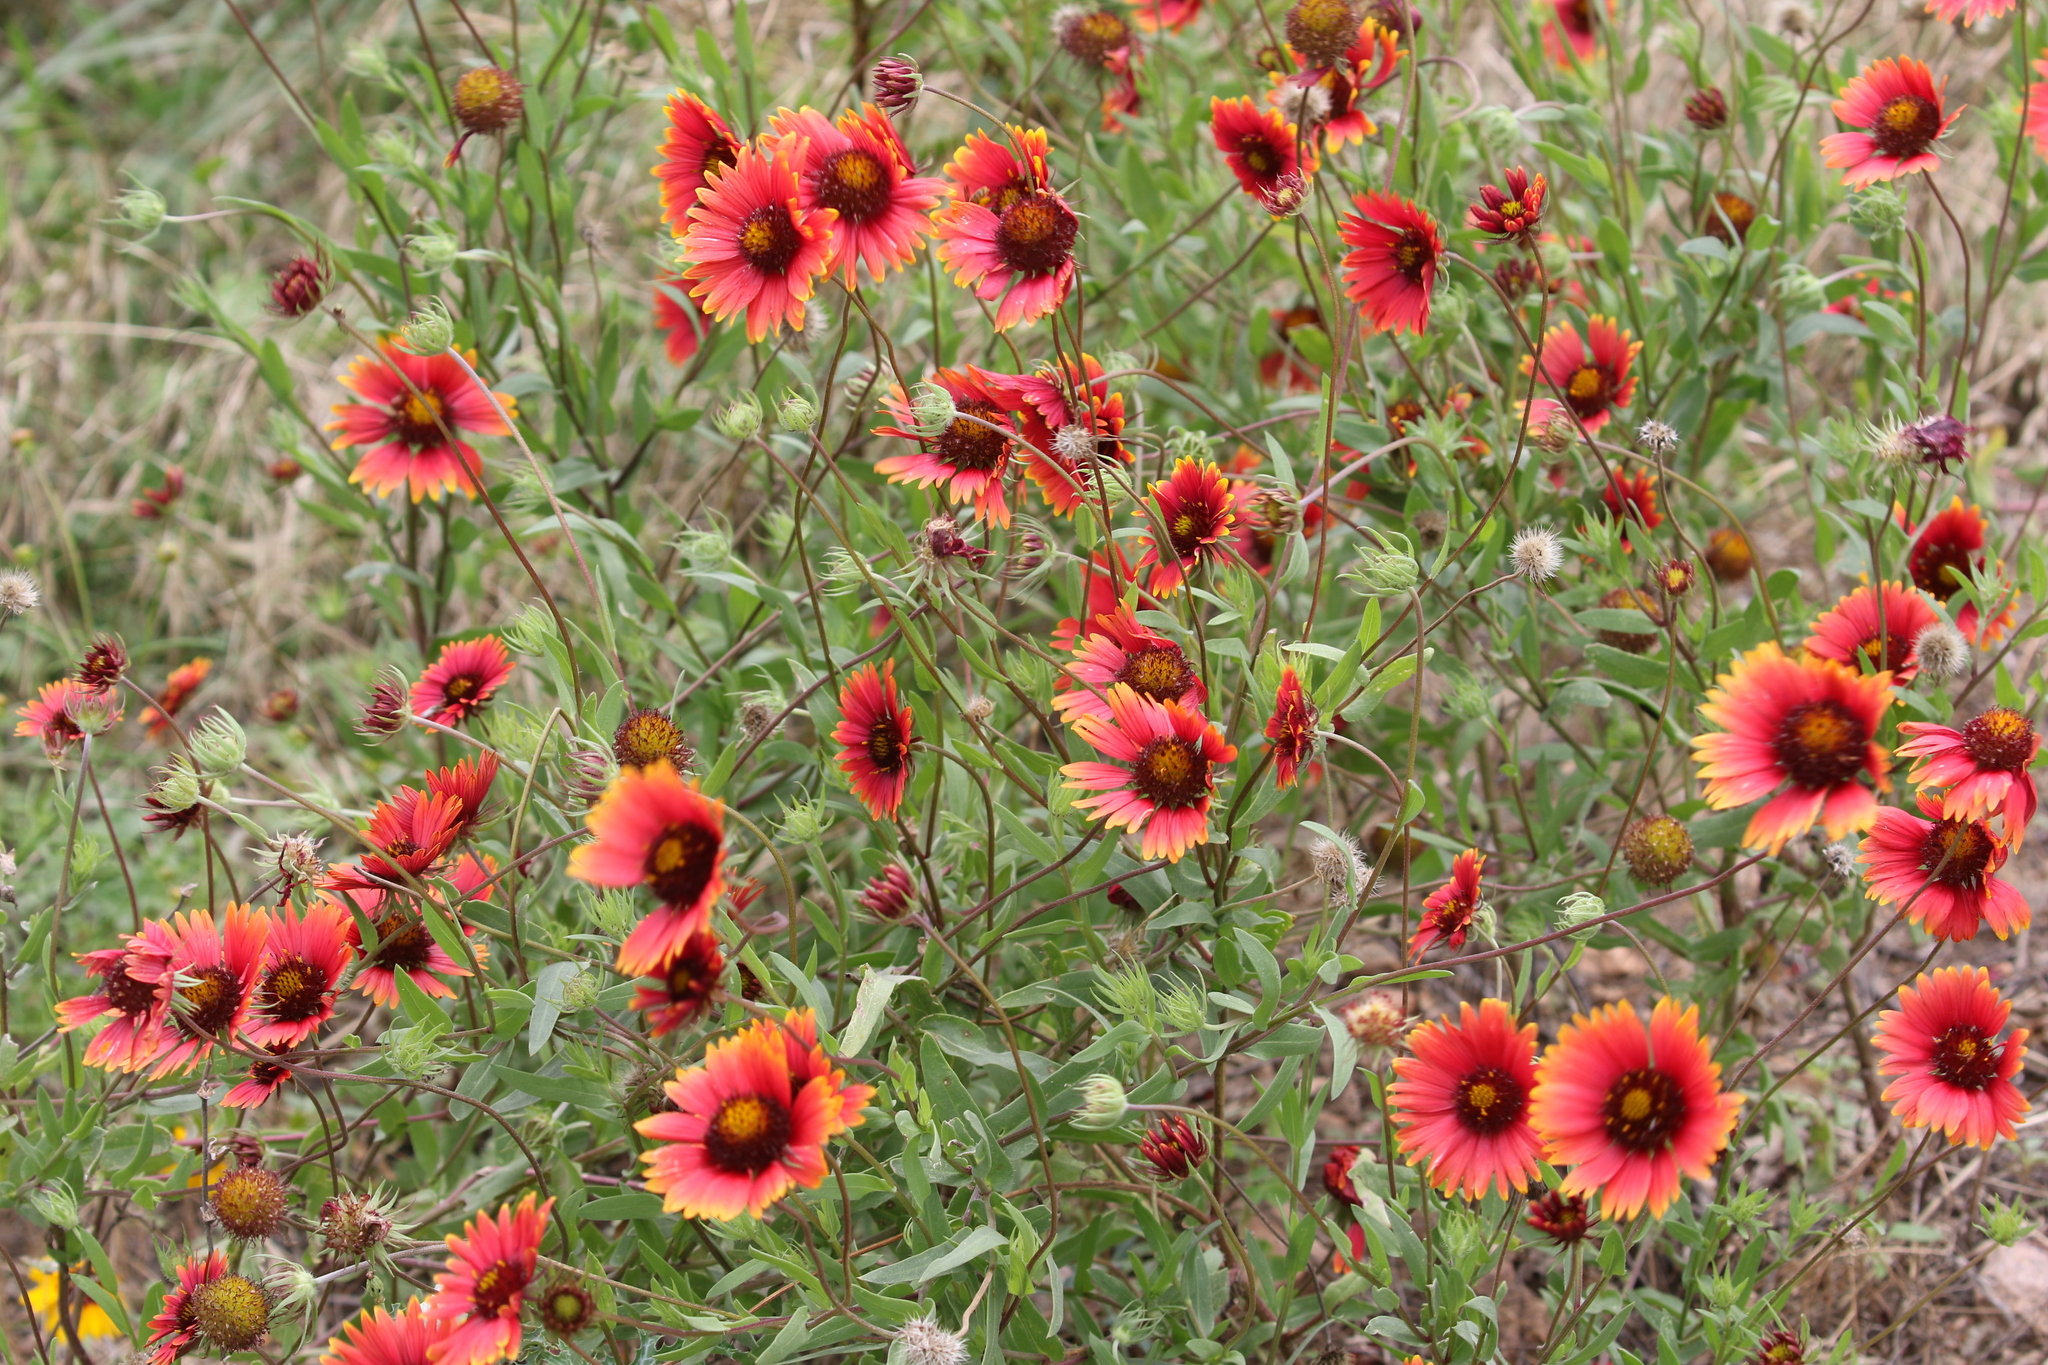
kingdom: Plantae
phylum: Tracheophyta
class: Magnoliopsida
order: Asterales
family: Asteraceae
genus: Gaillardia
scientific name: Gaillardia pulchella
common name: Firewheel
